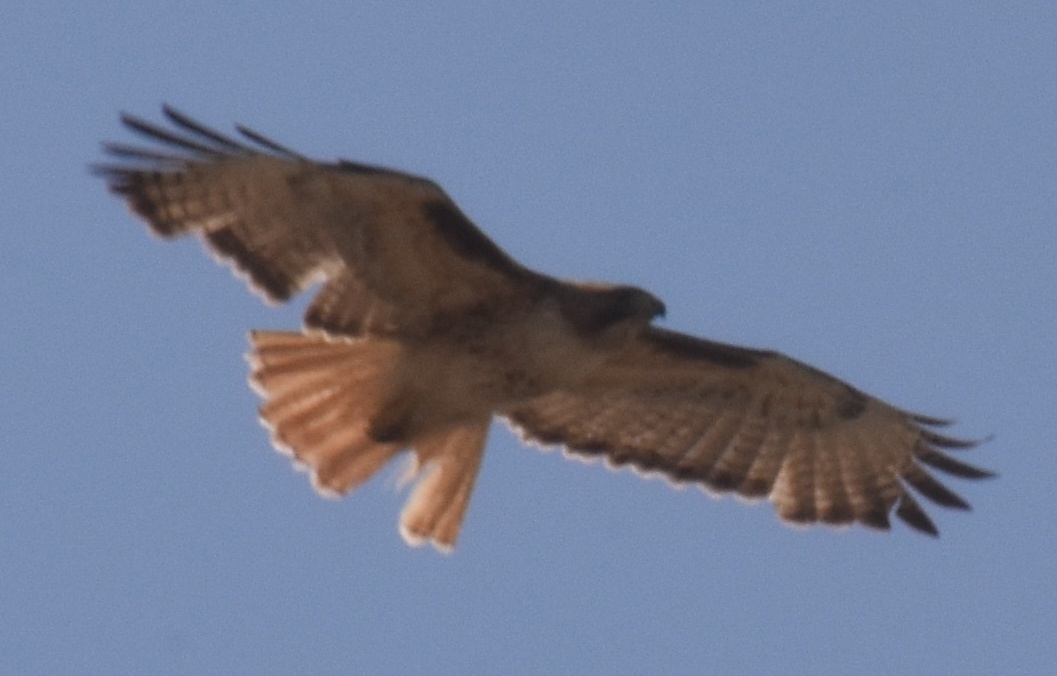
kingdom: Animalia
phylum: Chordata
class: Aves
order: Accipitriformes
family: Accipitridae
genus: Buteo
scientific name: Buteo jamaicensis
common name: Red-tailed hawk
